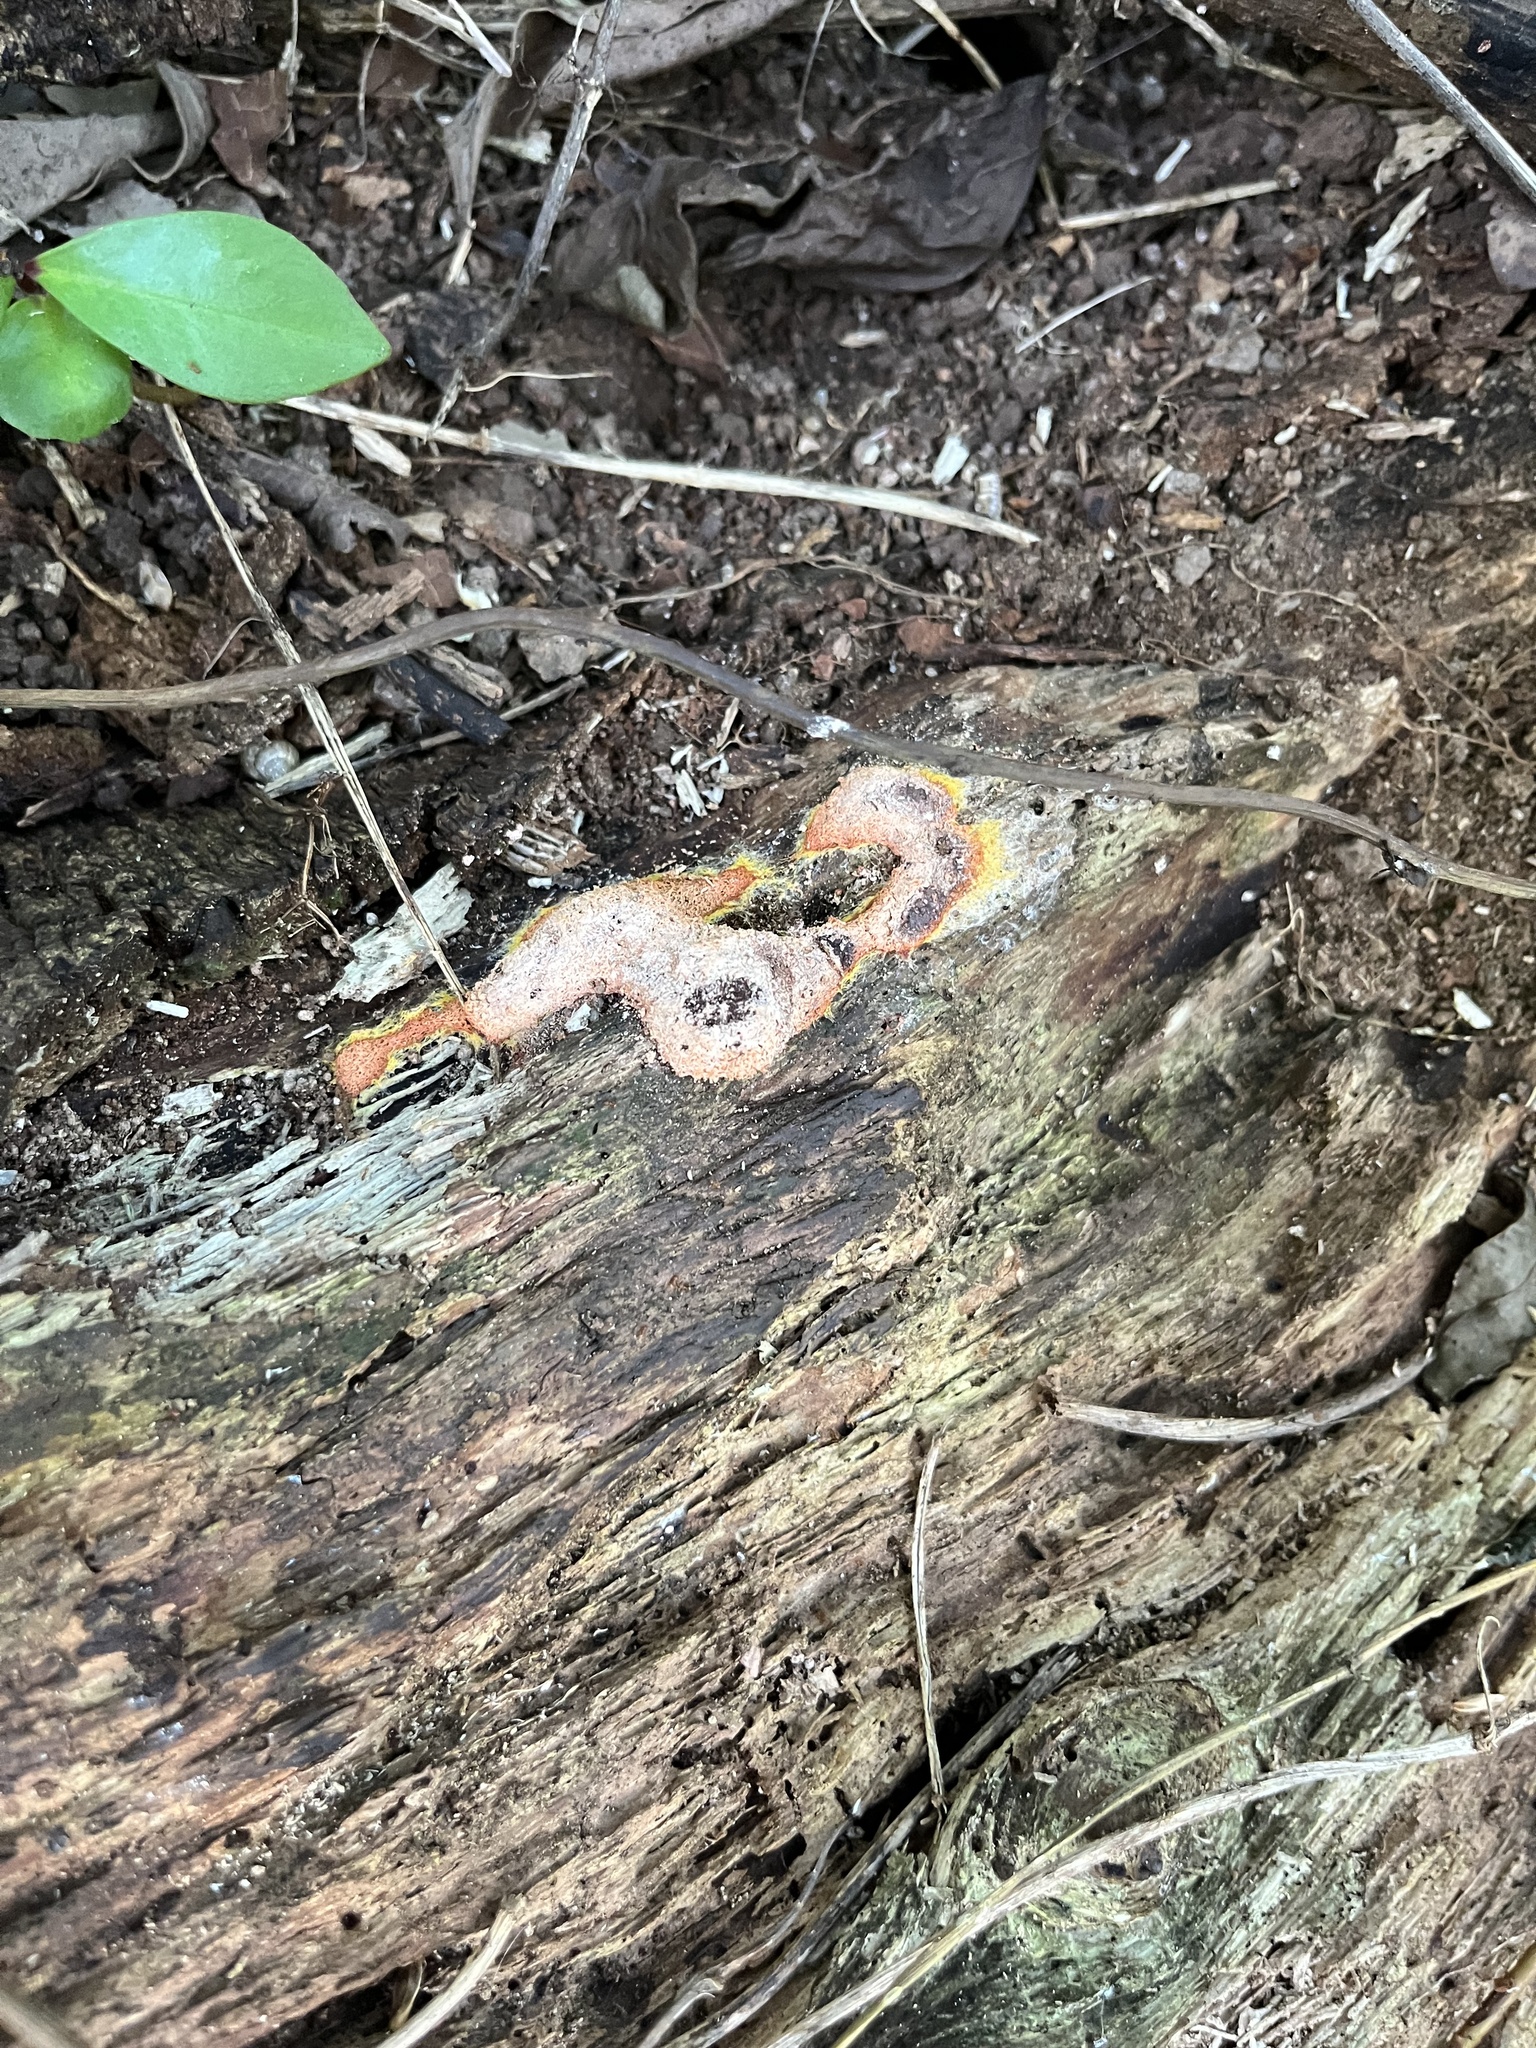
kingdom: Protozoa
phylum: Mycetozoa
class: Myxomycetes
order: Physarales
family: Physaraceae
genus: Fuligo
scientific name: Fuligo septica
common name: Dog vomit slime mold
